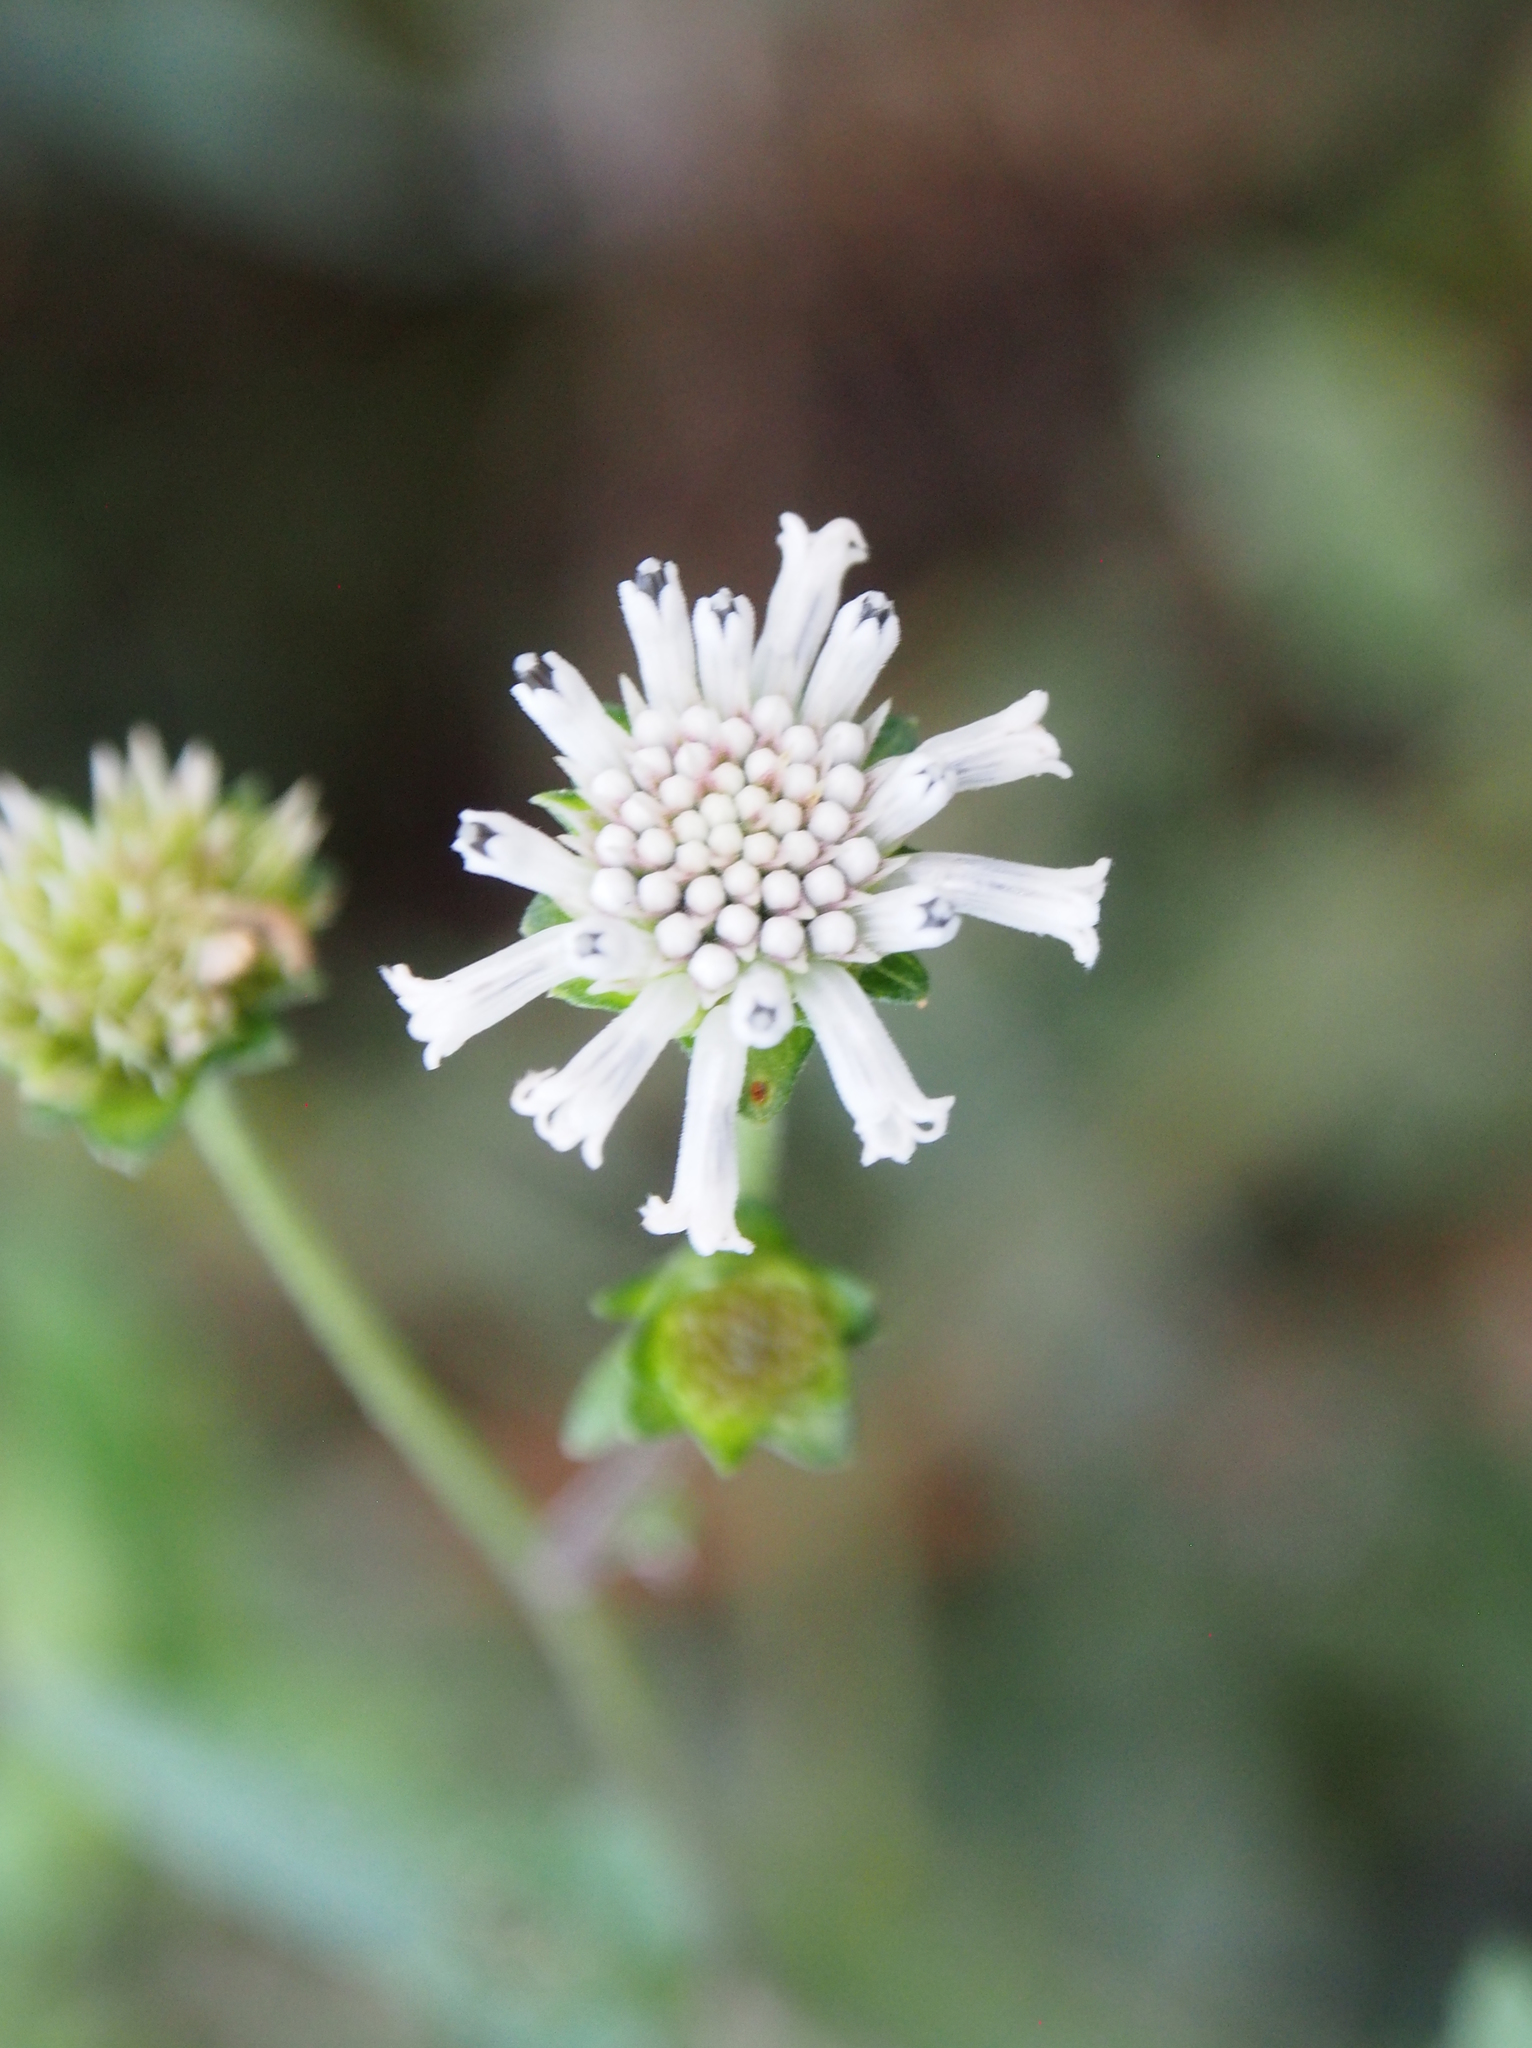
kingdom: Plantae
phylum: Tracheophyta
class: Magnoliopsida
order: Asterales
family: Asteraceae
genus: Melanthera
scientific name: Melanthera nivea
